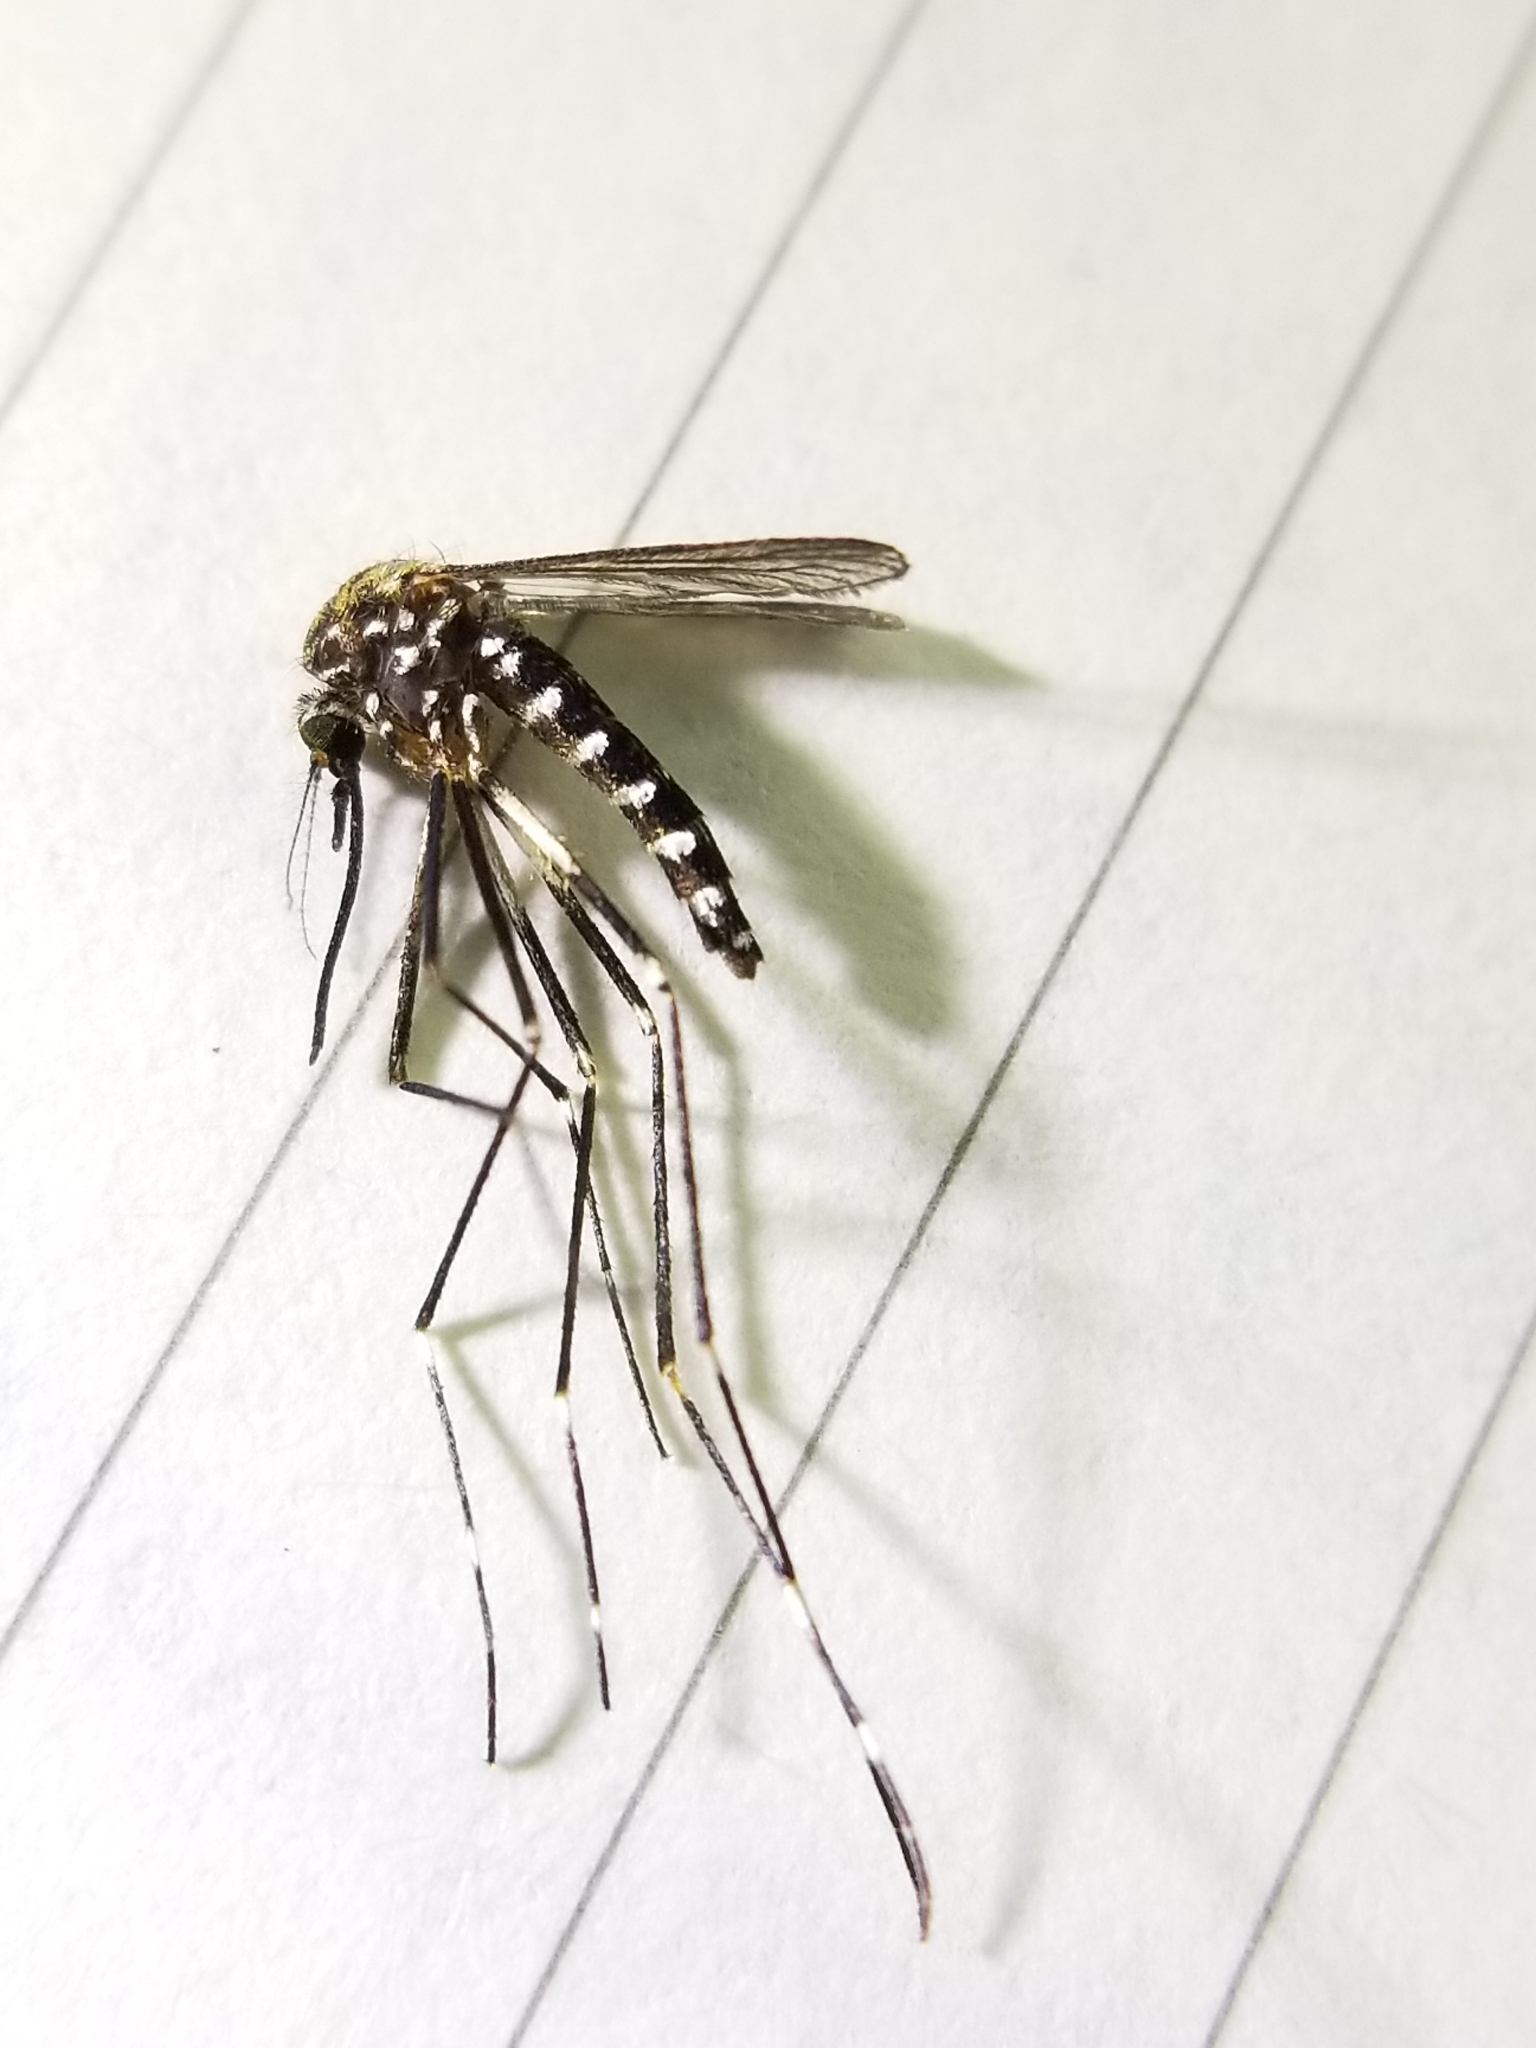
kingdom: Animalia
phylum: Arthropoda
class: Insecta
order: Diptera
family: Culicidae
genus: Aedes
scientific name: Aedes togoi
